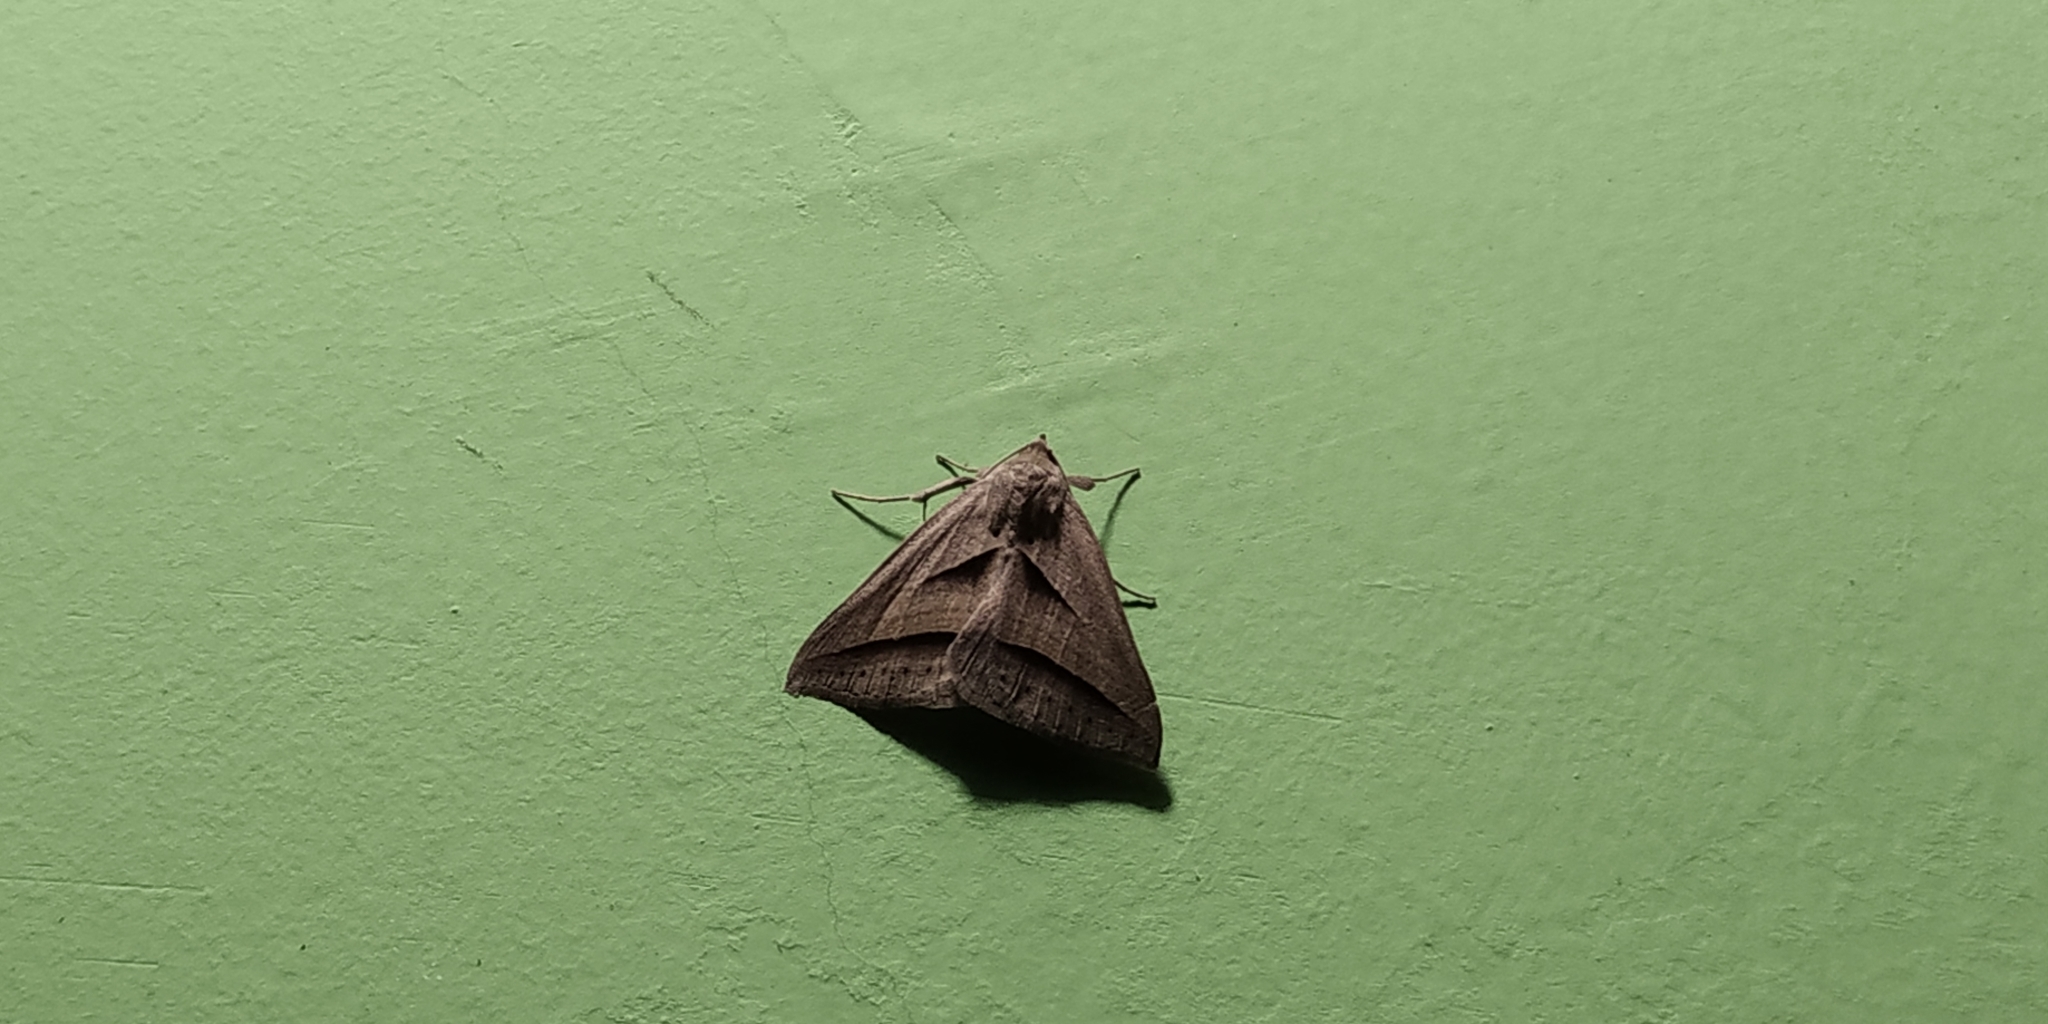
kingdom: Animalia
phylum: Arthropoda
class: Insecta
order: Lepidoptera
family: Erebidae
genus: Perasia
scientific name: Perasia garnoti
